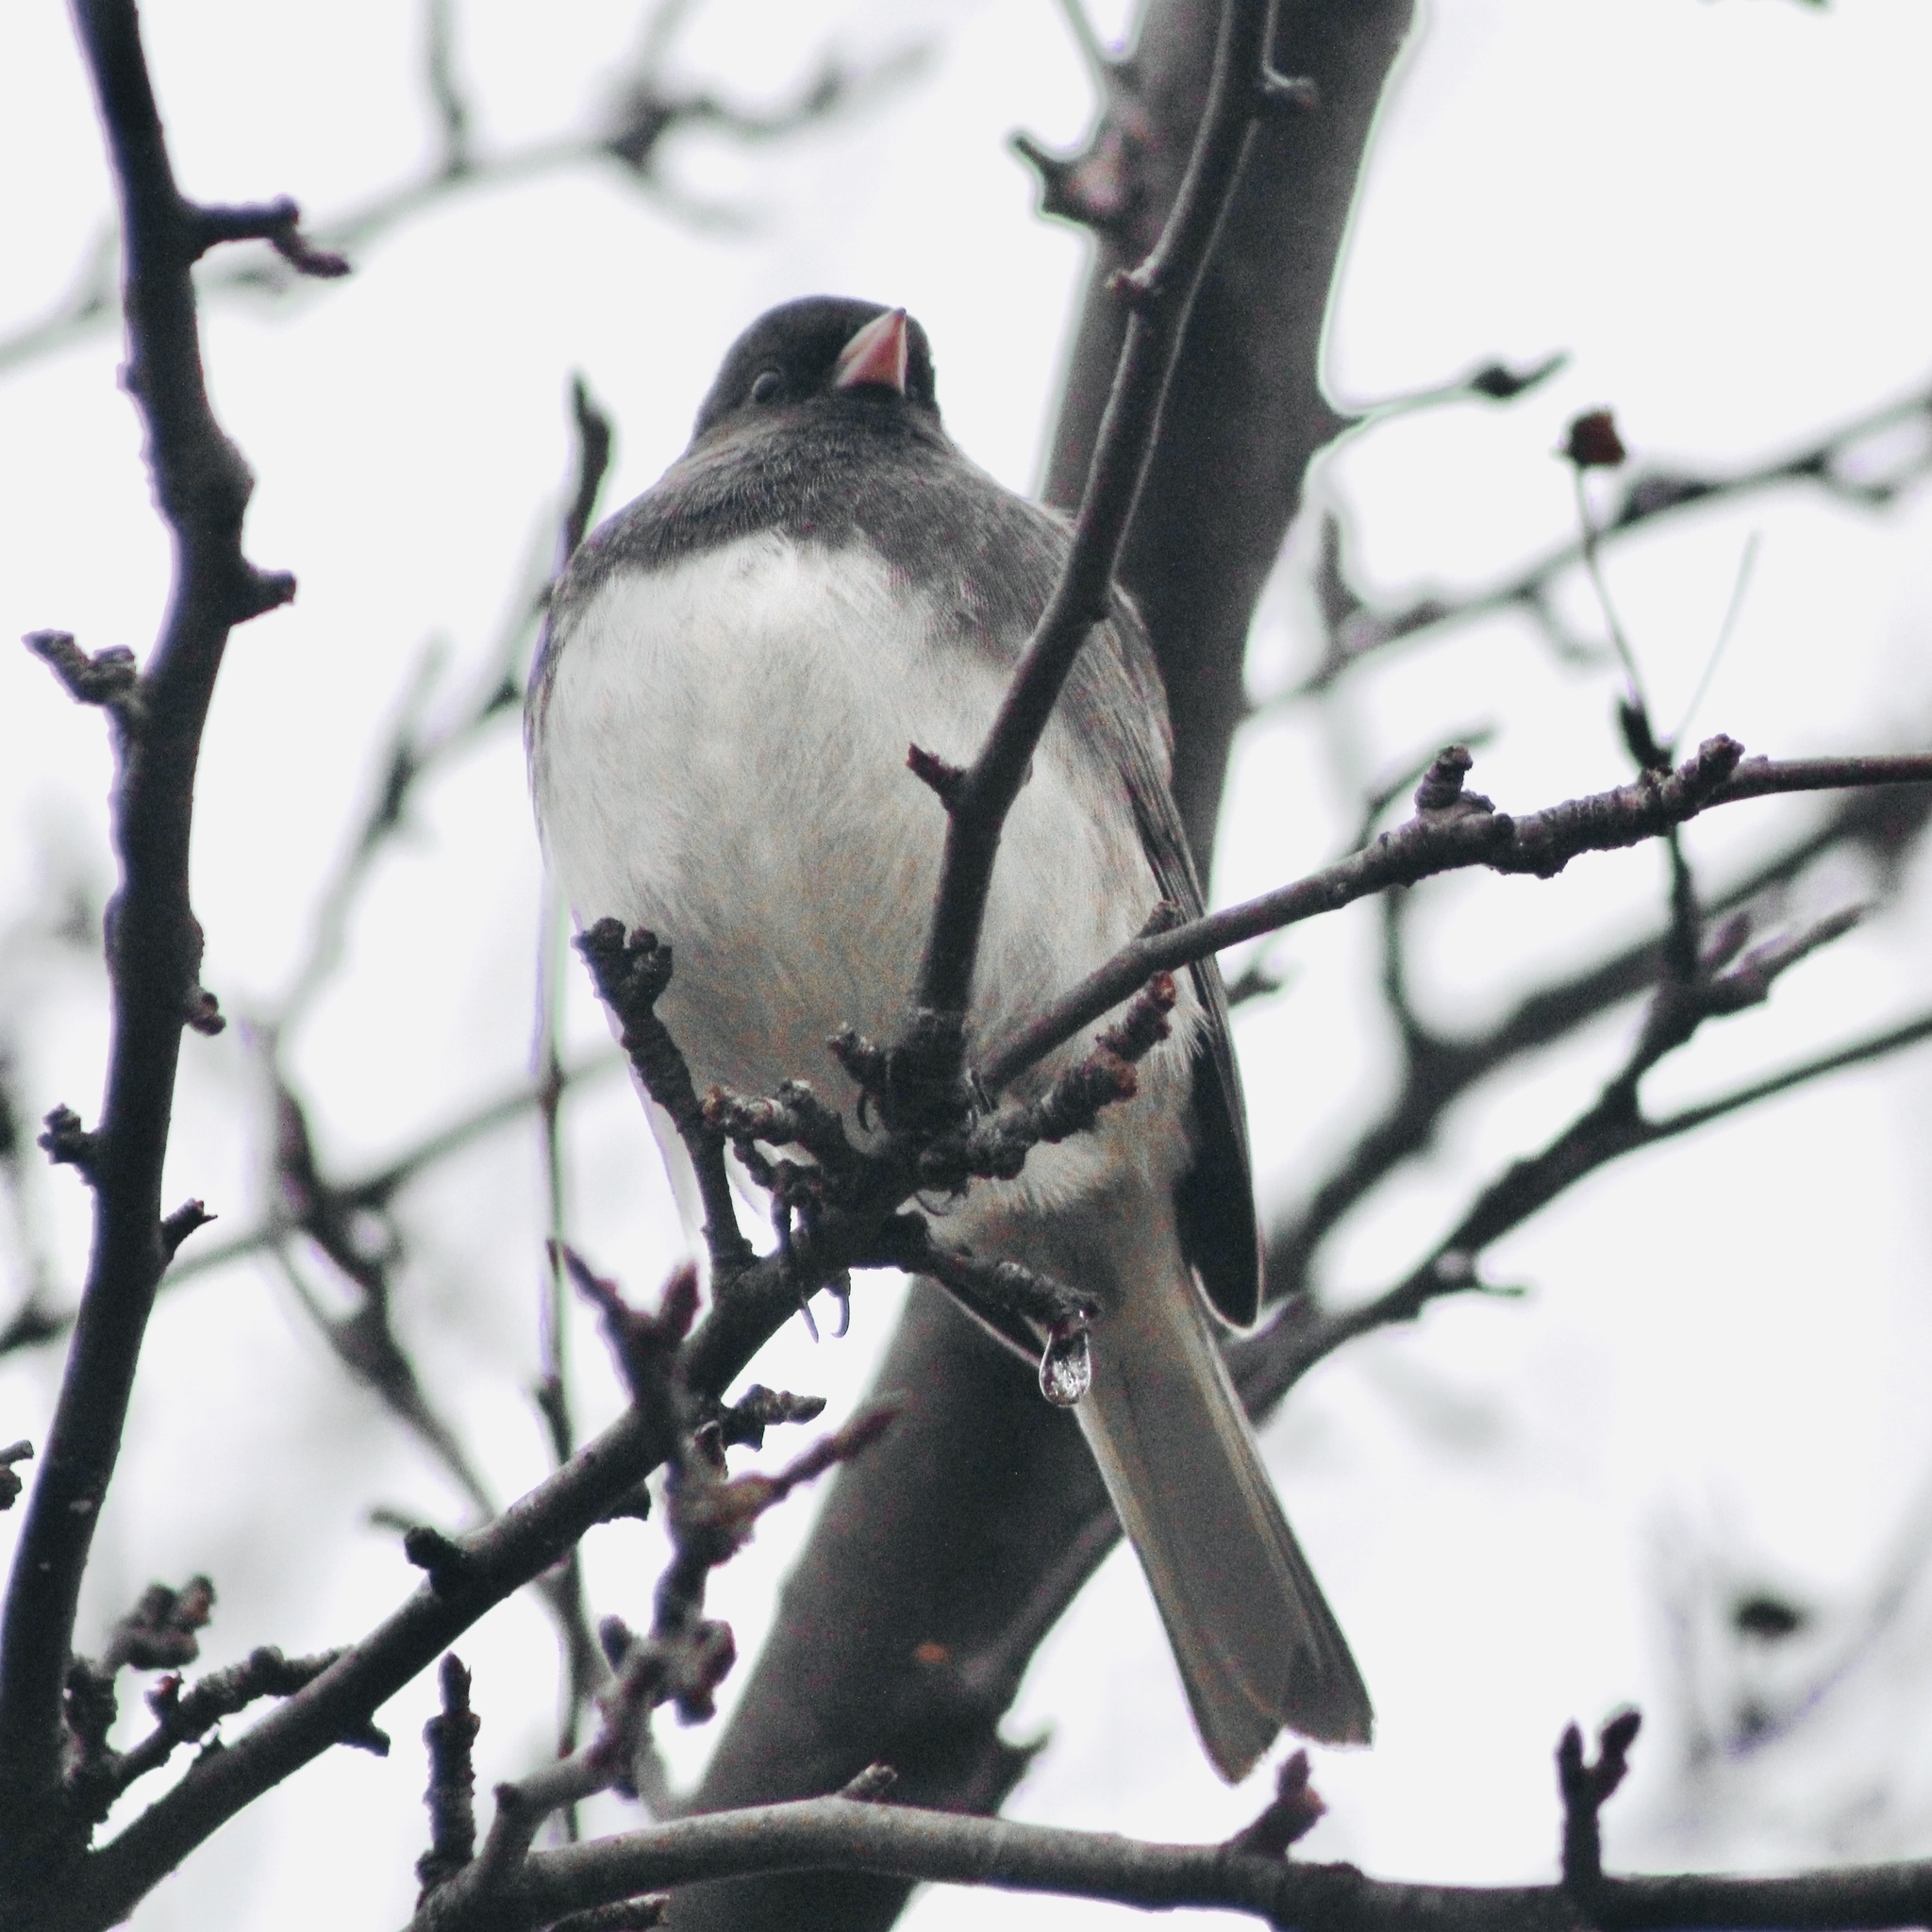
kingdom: Animalia
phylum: Chordata
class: Aves
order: Passeriformes
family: Passerellidae
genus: Junco
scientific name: Junco hyemalis
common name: Dark-eyed junco
